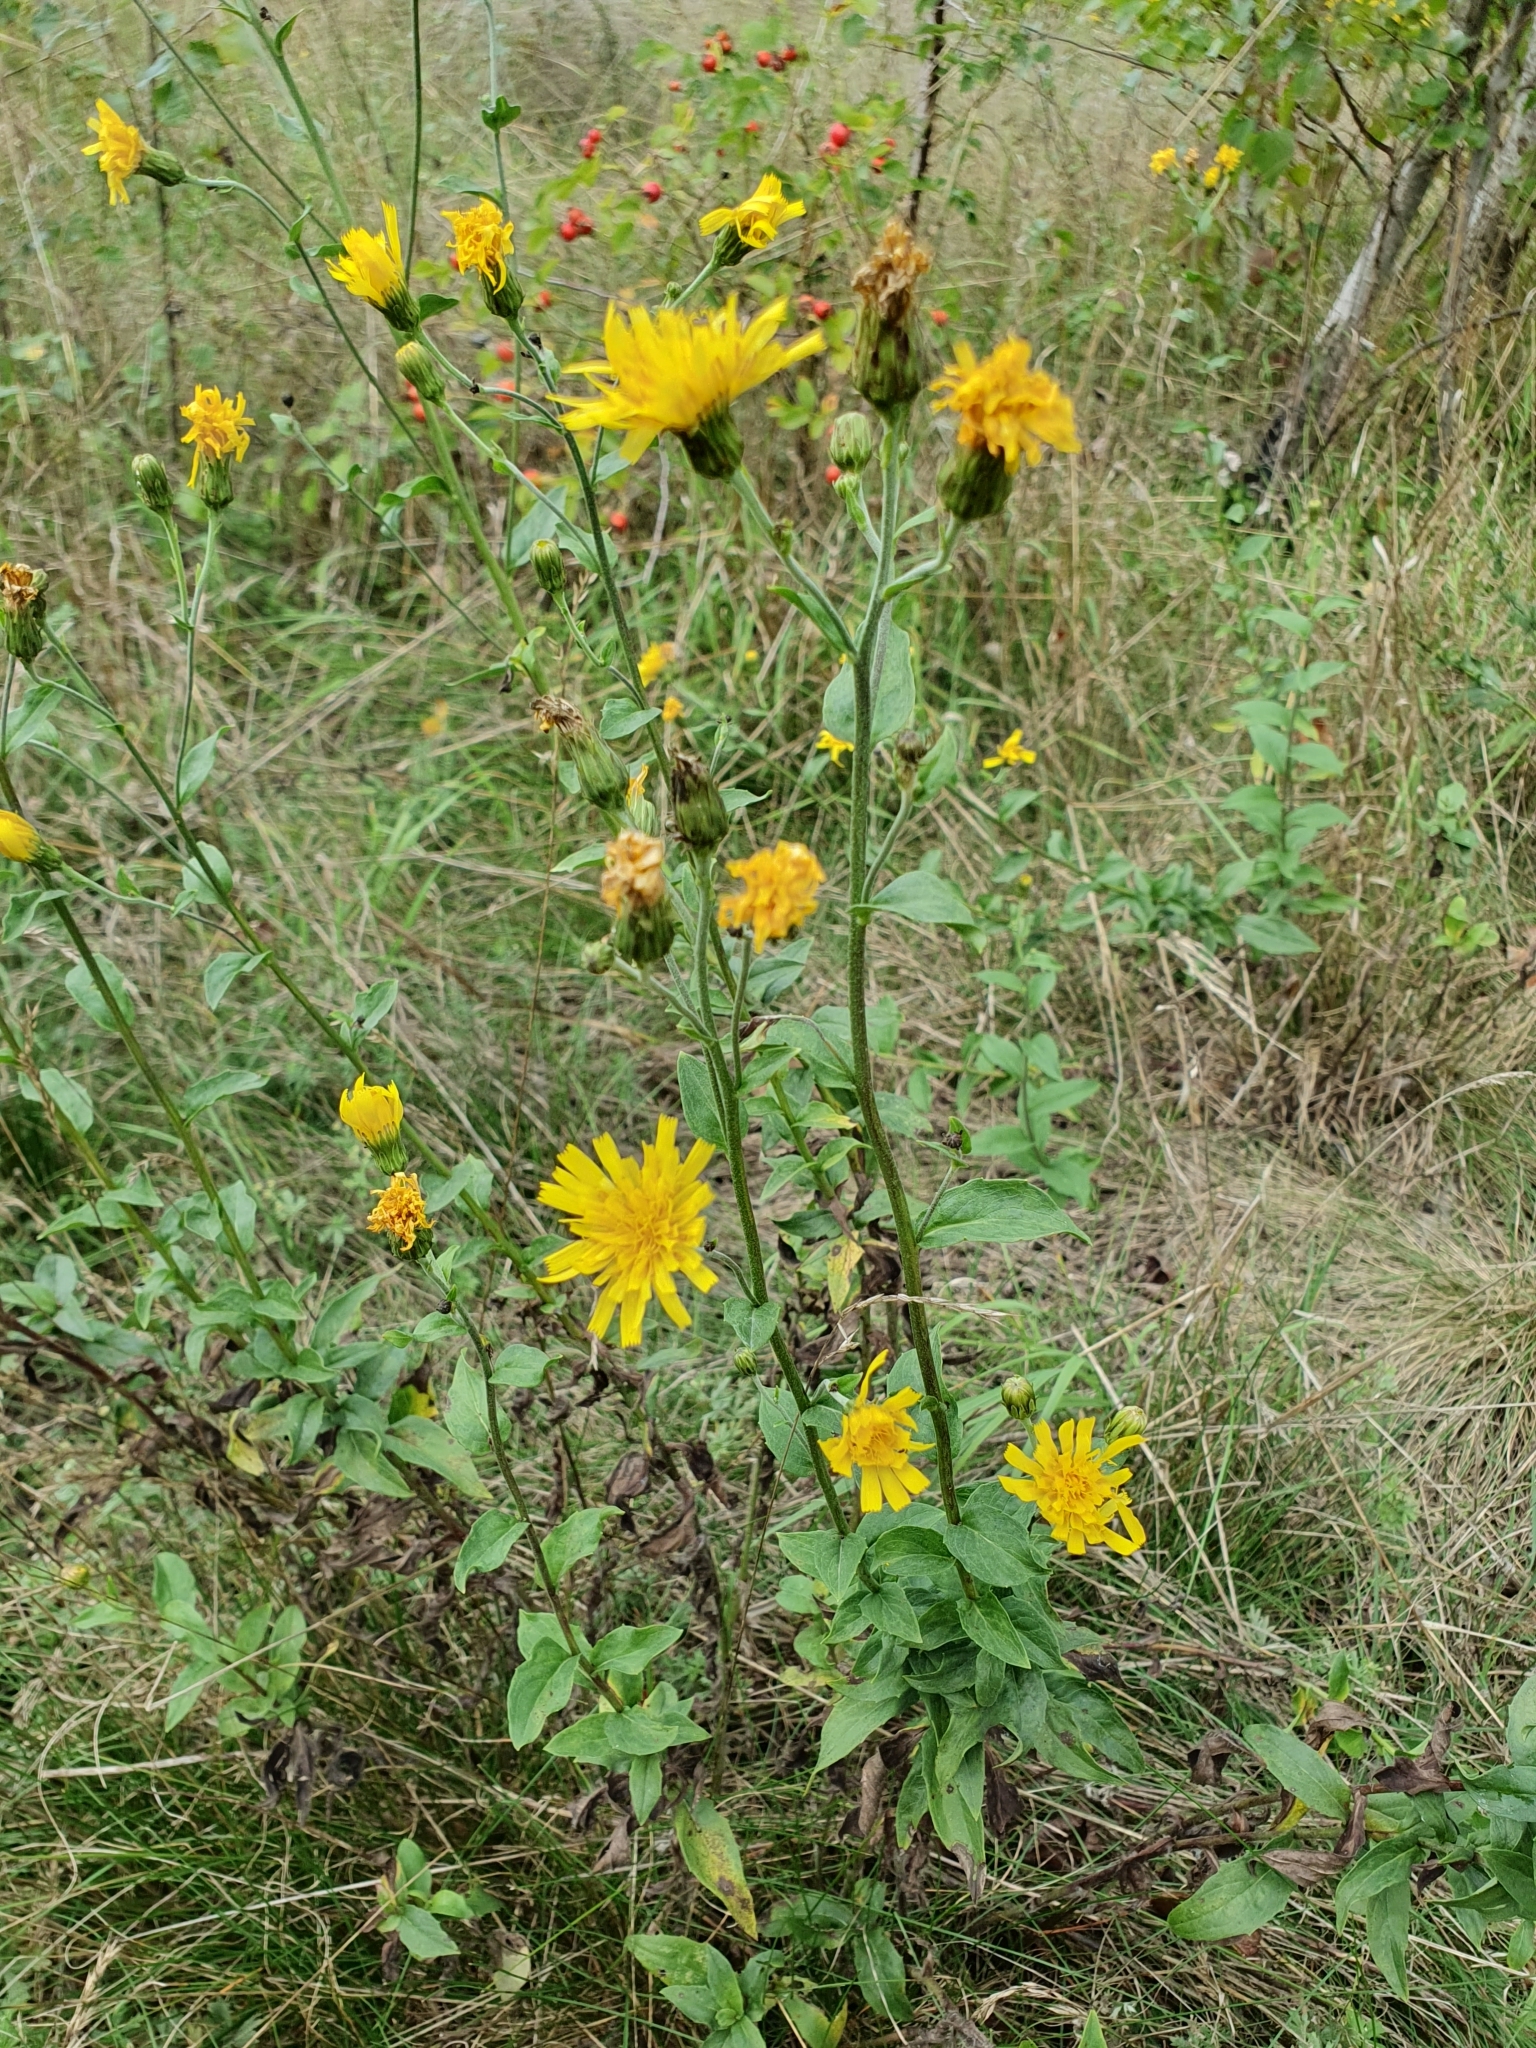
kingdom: Plantae
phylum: Tracheophyta
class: Magnoliopsida
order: Asterales
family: Asteraceae
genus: Hieracium
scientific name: Hieracium sabaudum
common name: New england hawkweed
